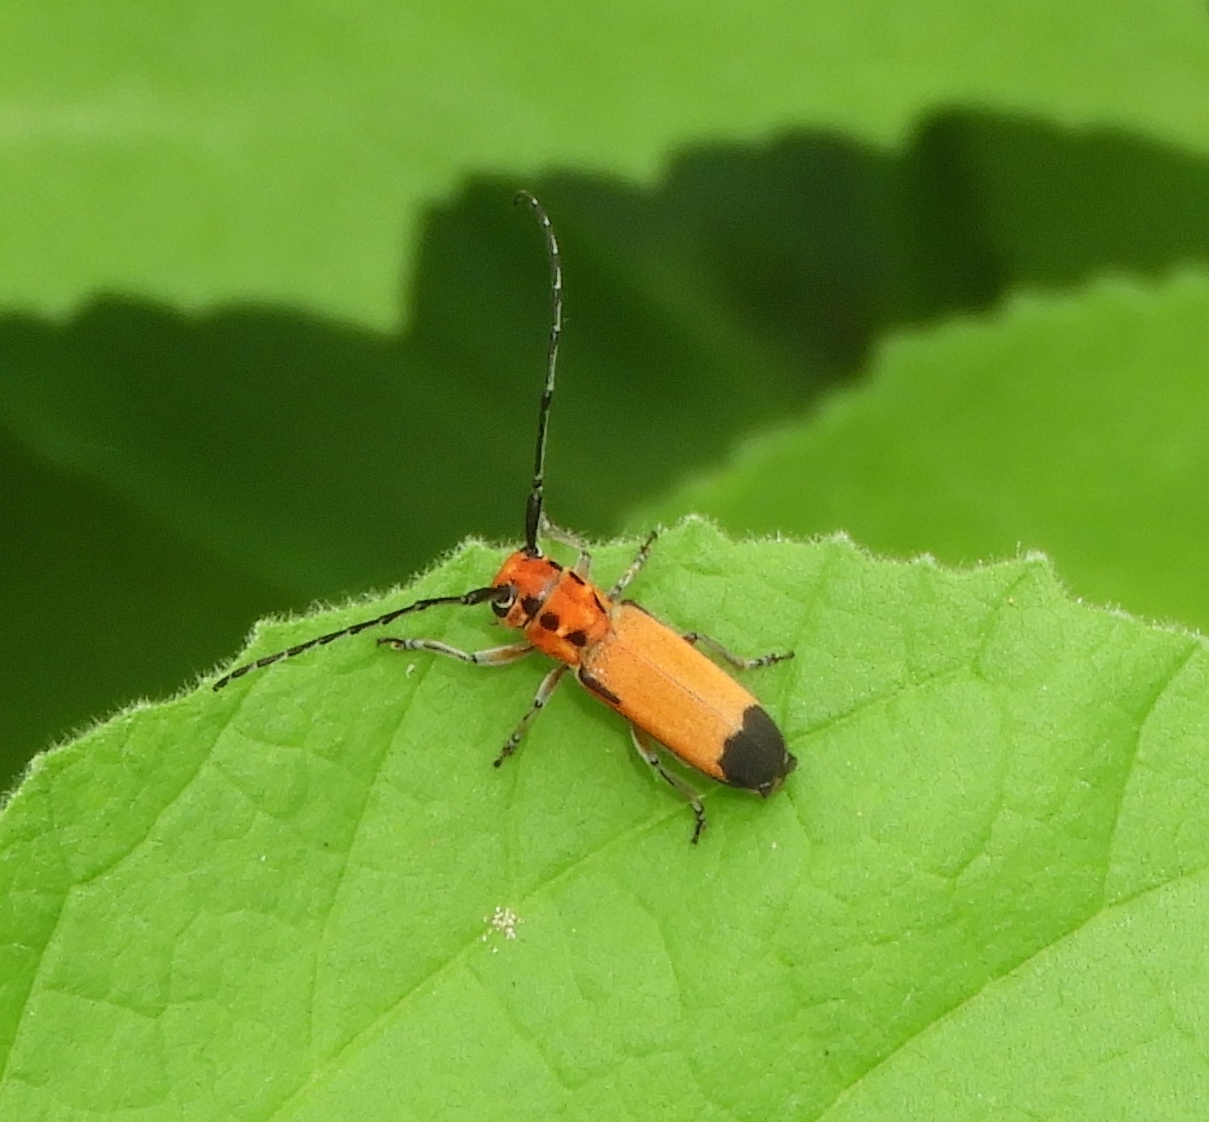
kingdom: Animalia
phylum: Arthropoda
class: Insecta
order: Coleoptera
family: Cerambycidae
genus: Essostrutha
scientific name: Essostrutha laeta
